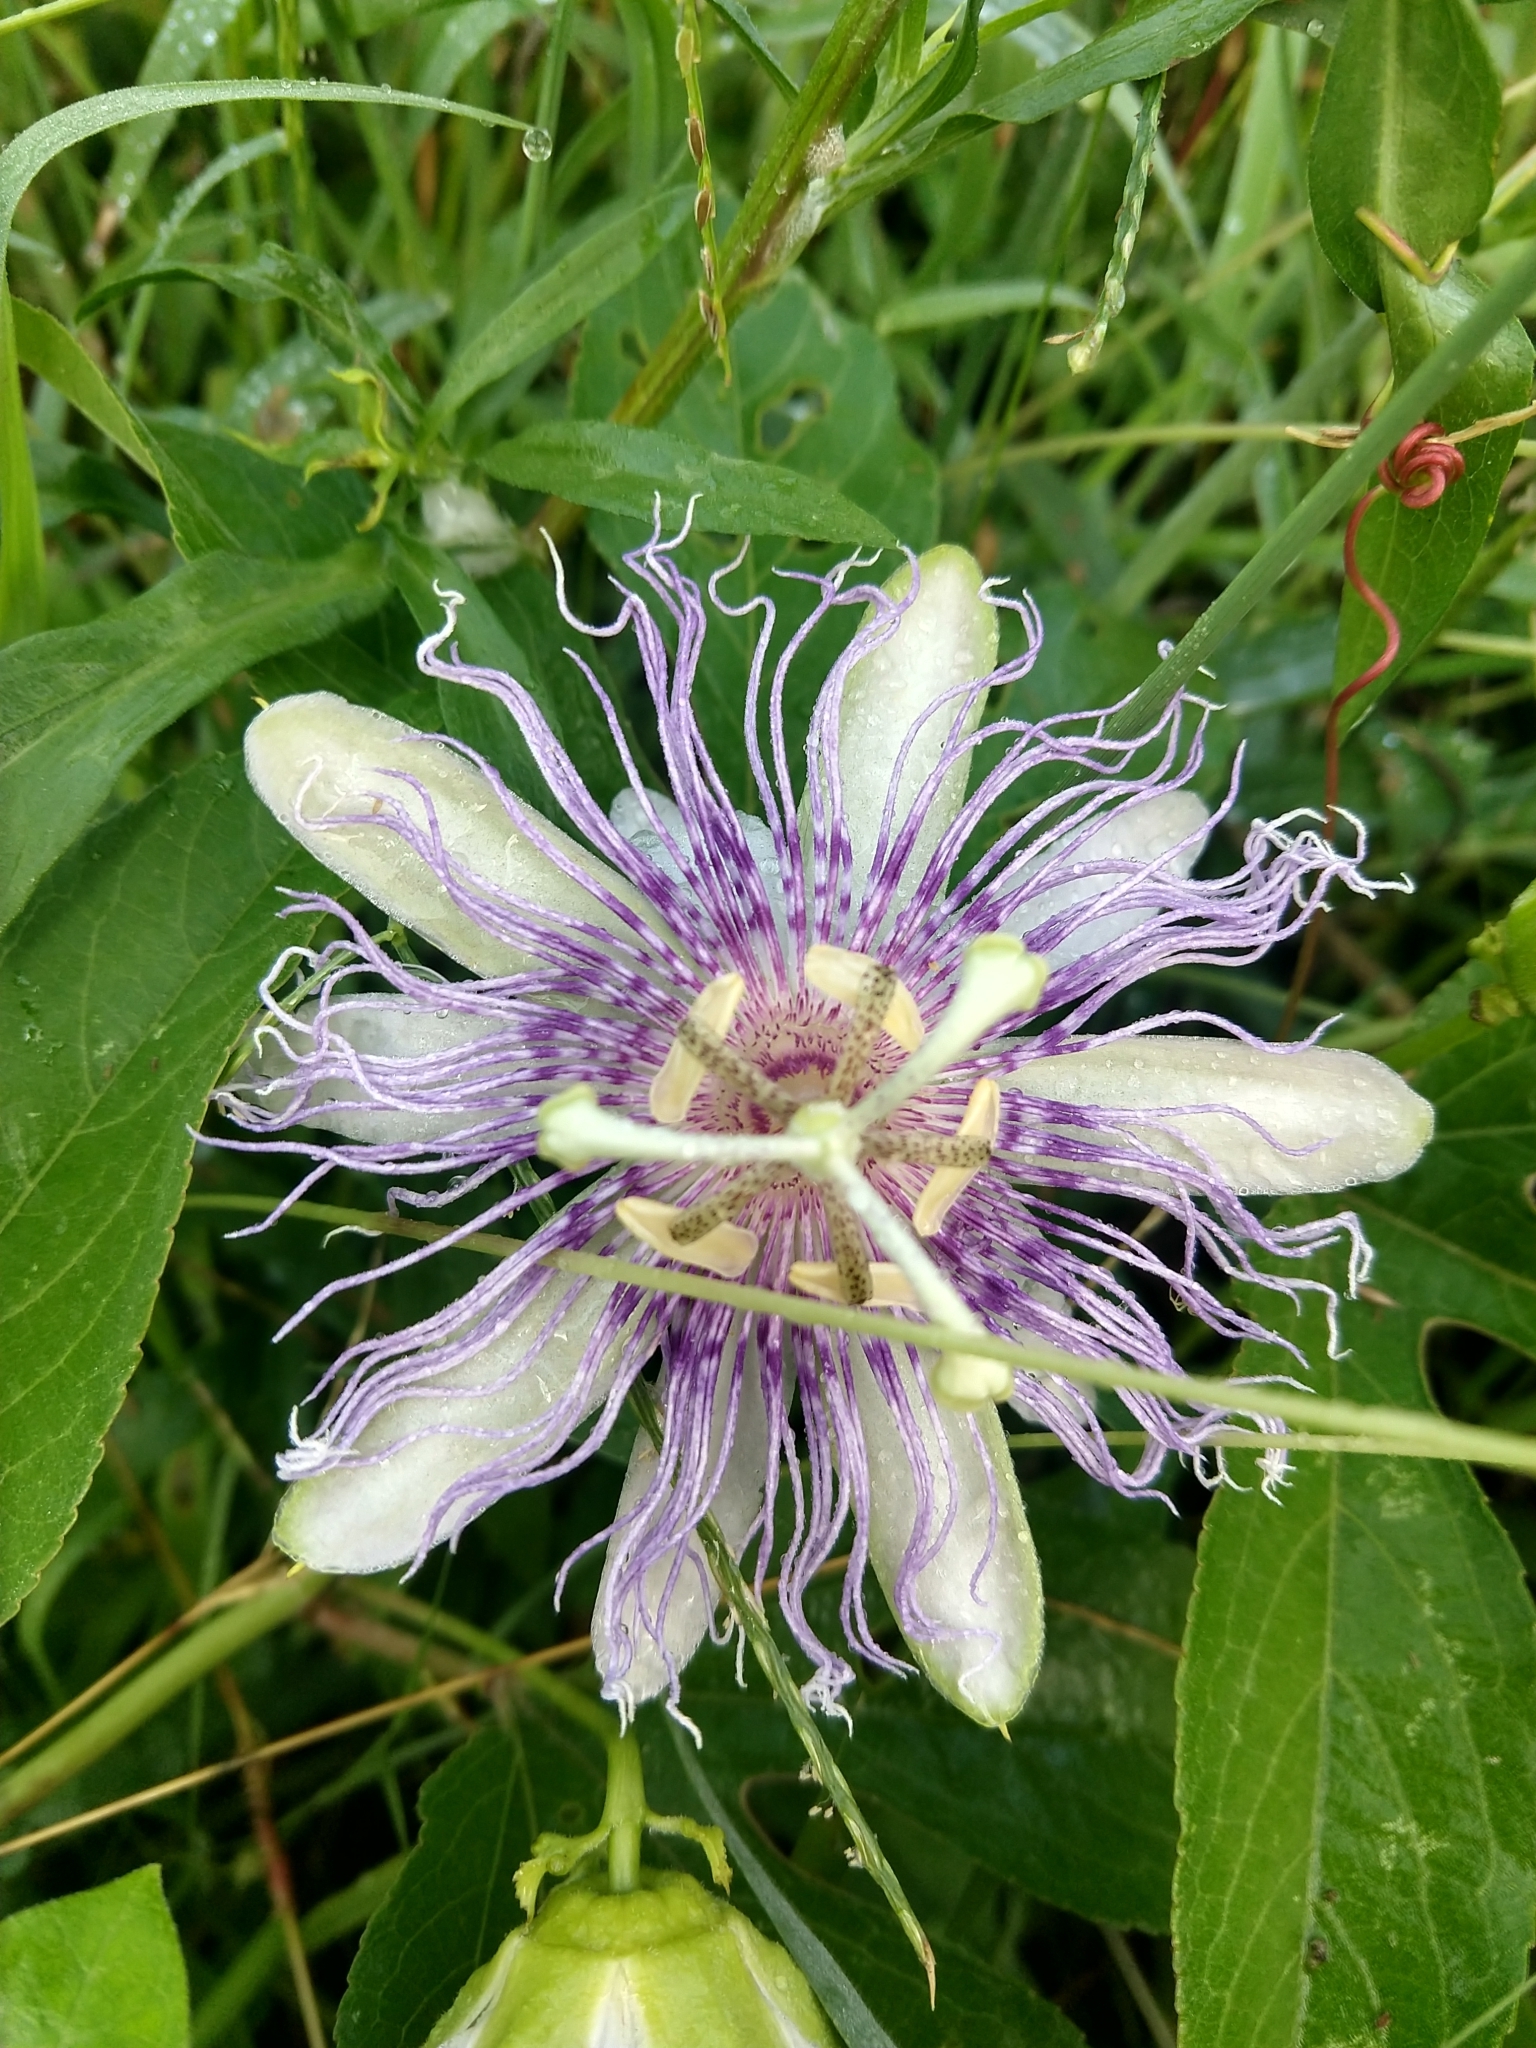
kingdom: Plantae
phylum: Tracheophyta
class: Magnoliopsida
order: Malpighiales
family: Passifloraceae
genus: Passiflora
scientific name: Passiflora incarnata
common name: Apricot-vine
